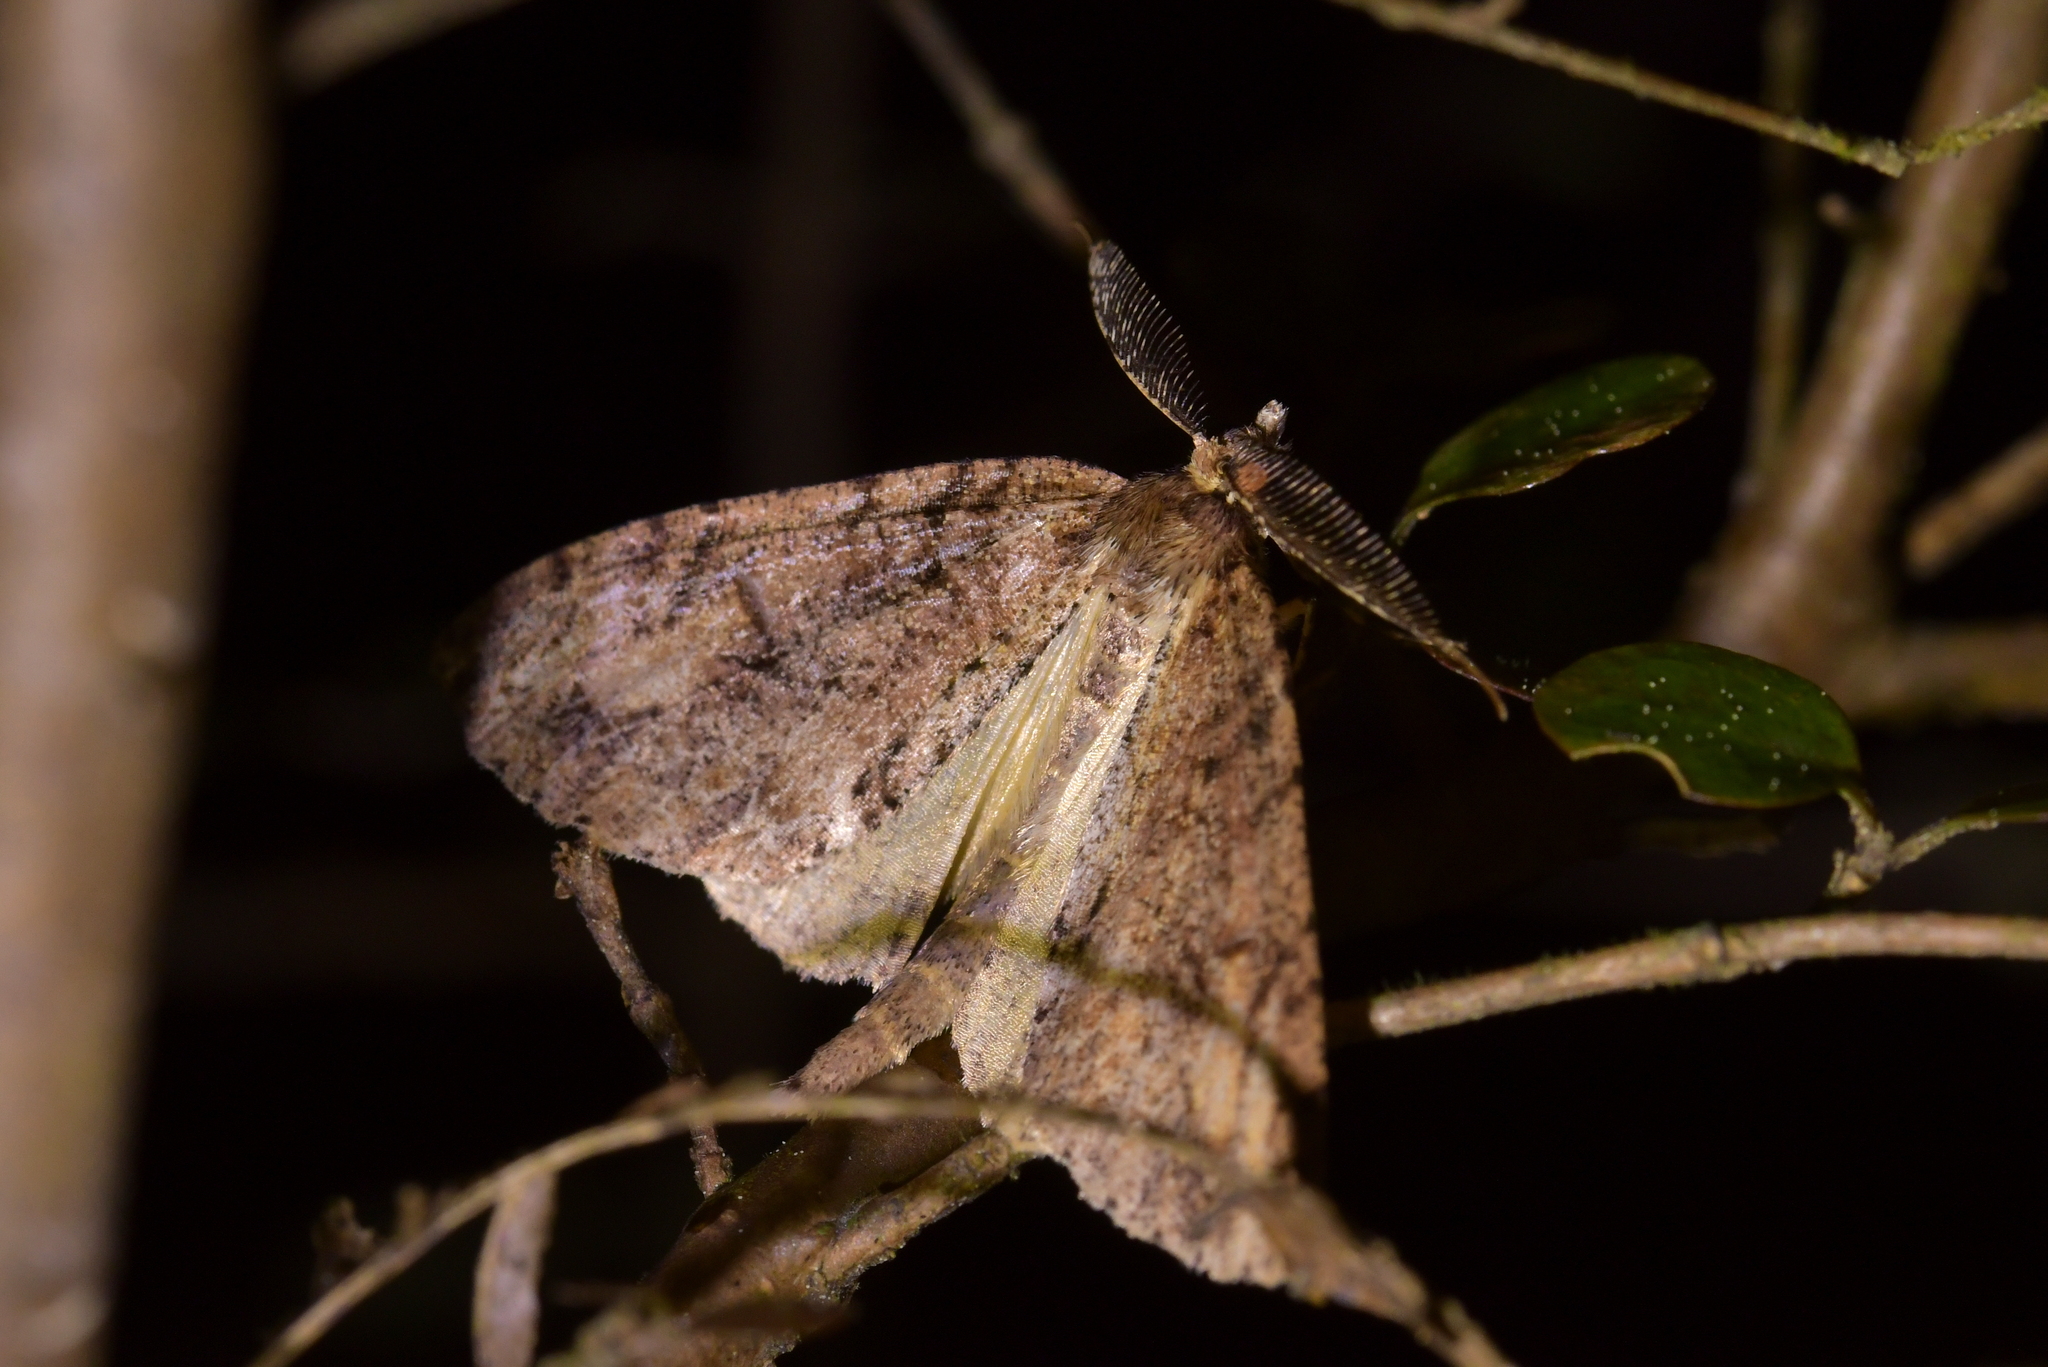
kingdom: Animalia
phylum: Arthropoda
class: Insecta
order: Lepidoptera
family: Geometridae
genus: Pseudocoremia
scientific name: Pseudocoremia suavis
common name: Common forest looper
